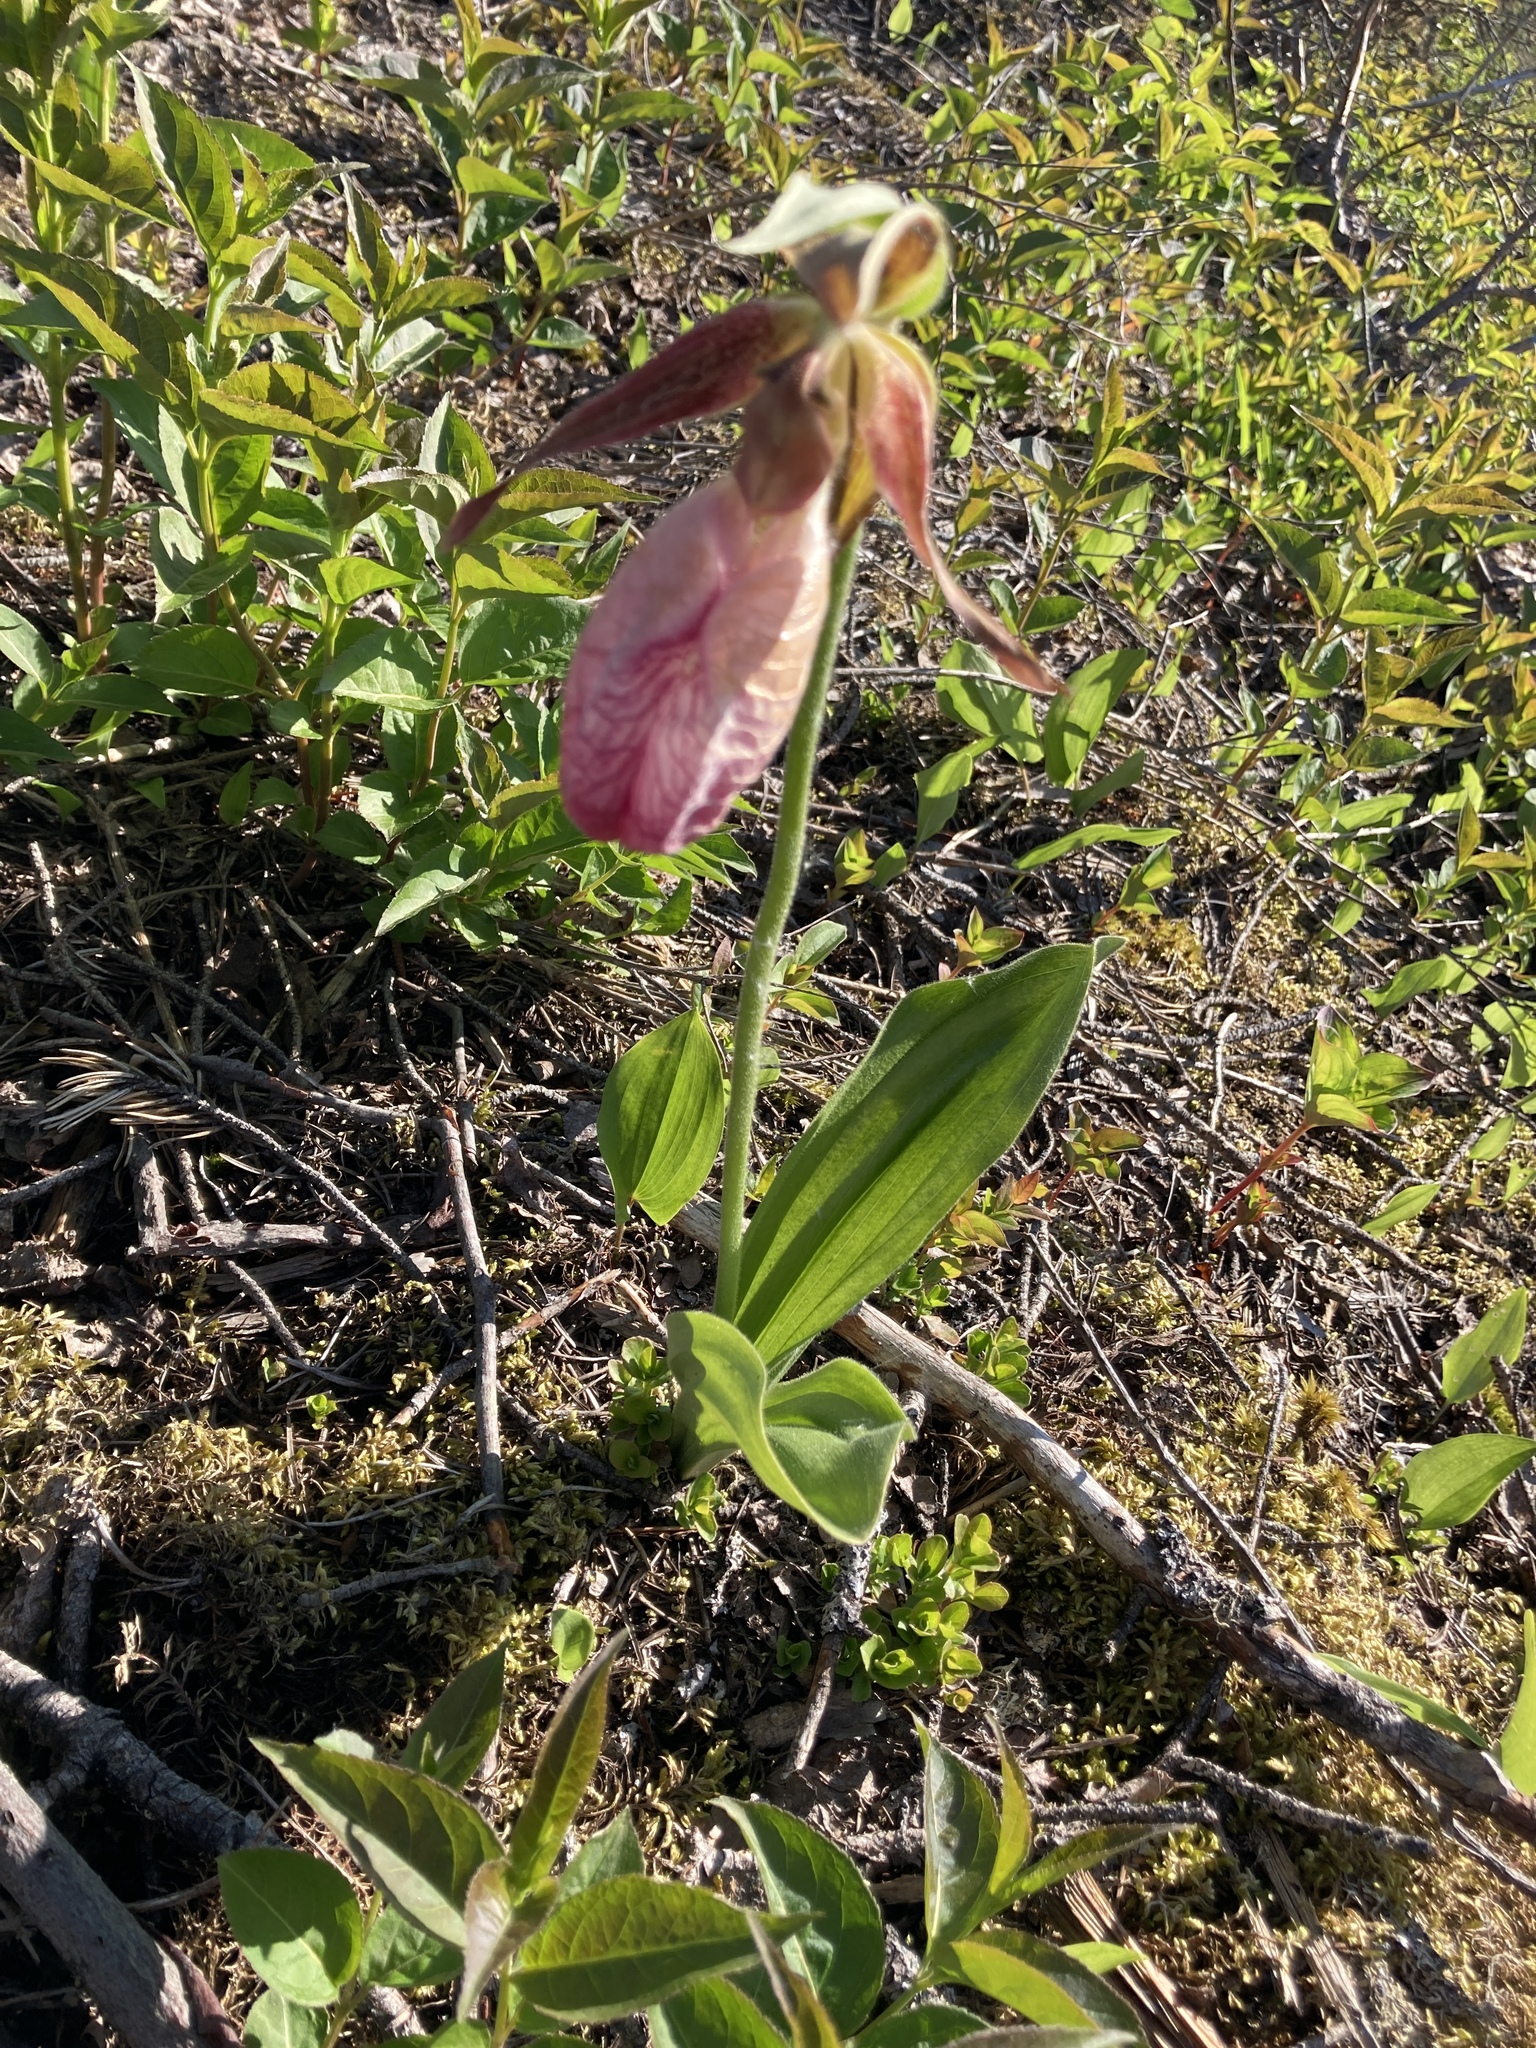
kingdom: Plantae
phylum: Tracheophyta
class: Liliopsida
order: Asparagales
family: Orchidaceae
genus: Cypripedium
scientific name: Cypripedium acaule
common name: Pink lady's-slipper
